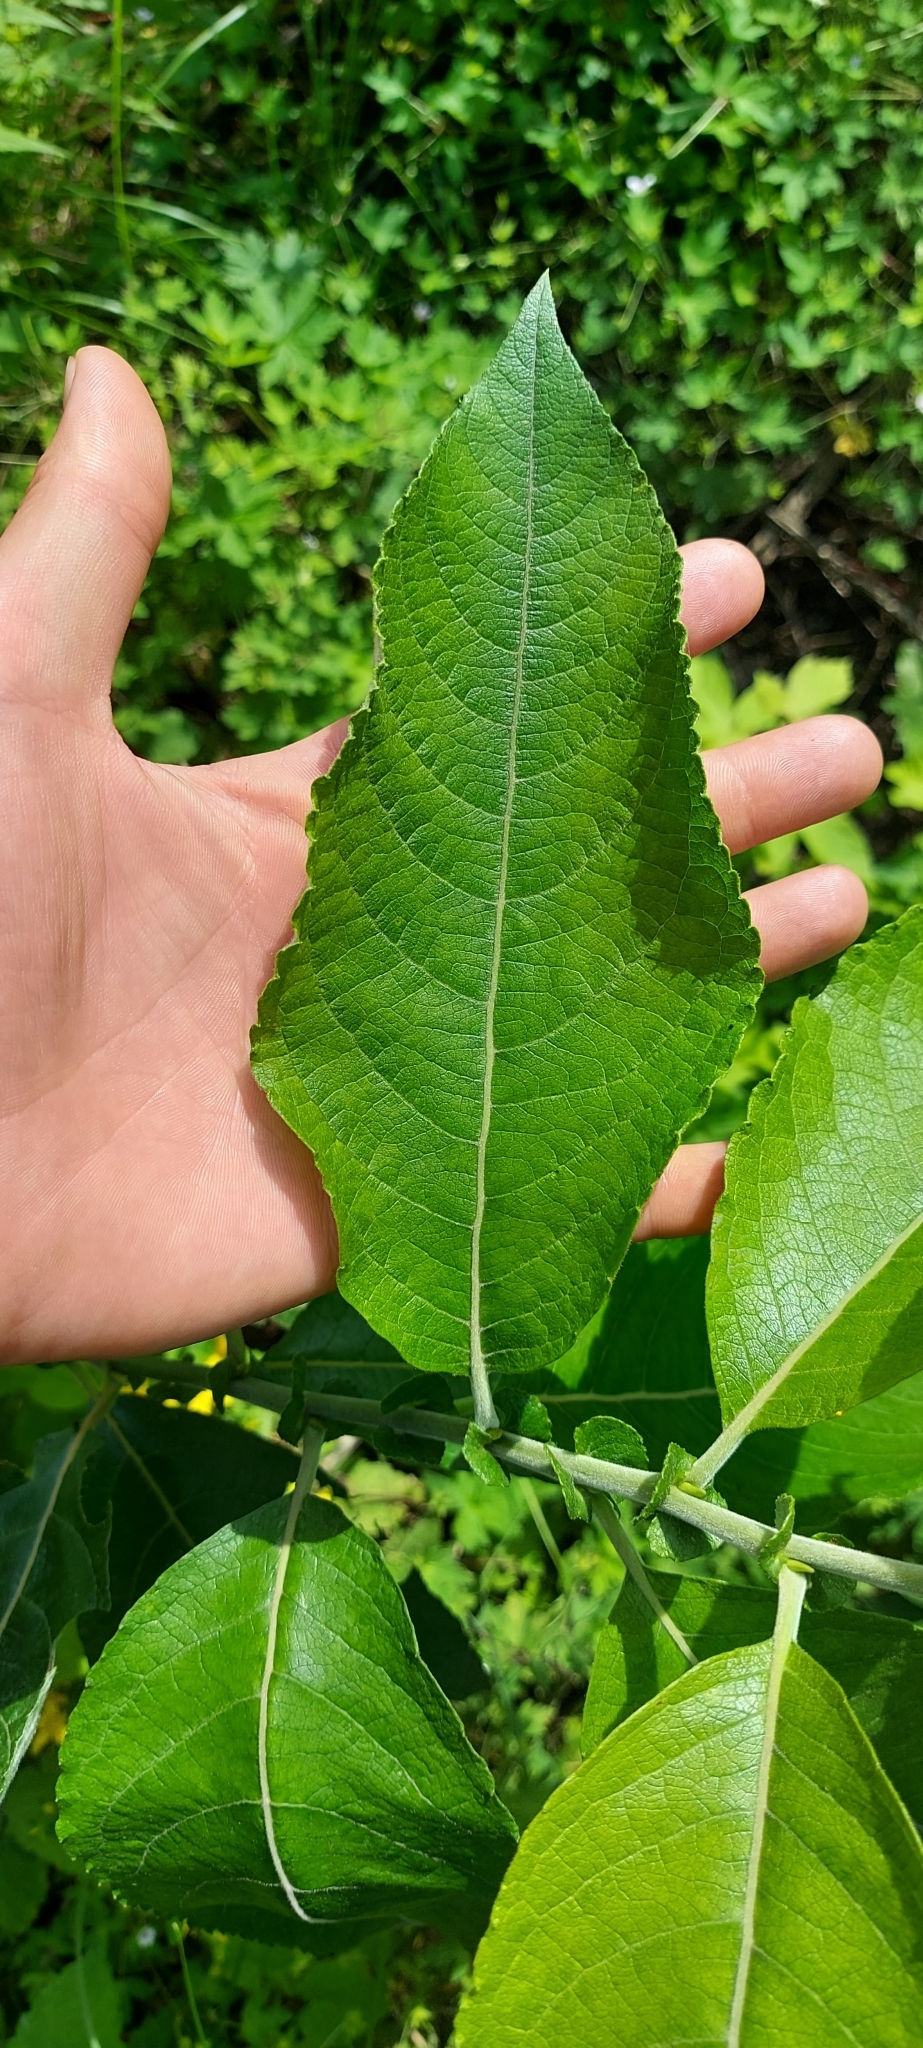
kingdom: Plantae
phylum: Tracheophyta
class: Magnoliopsida
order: Malpighiales
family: Salicaceae
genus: Salix
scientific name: Salix caprea
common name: Goat willow
